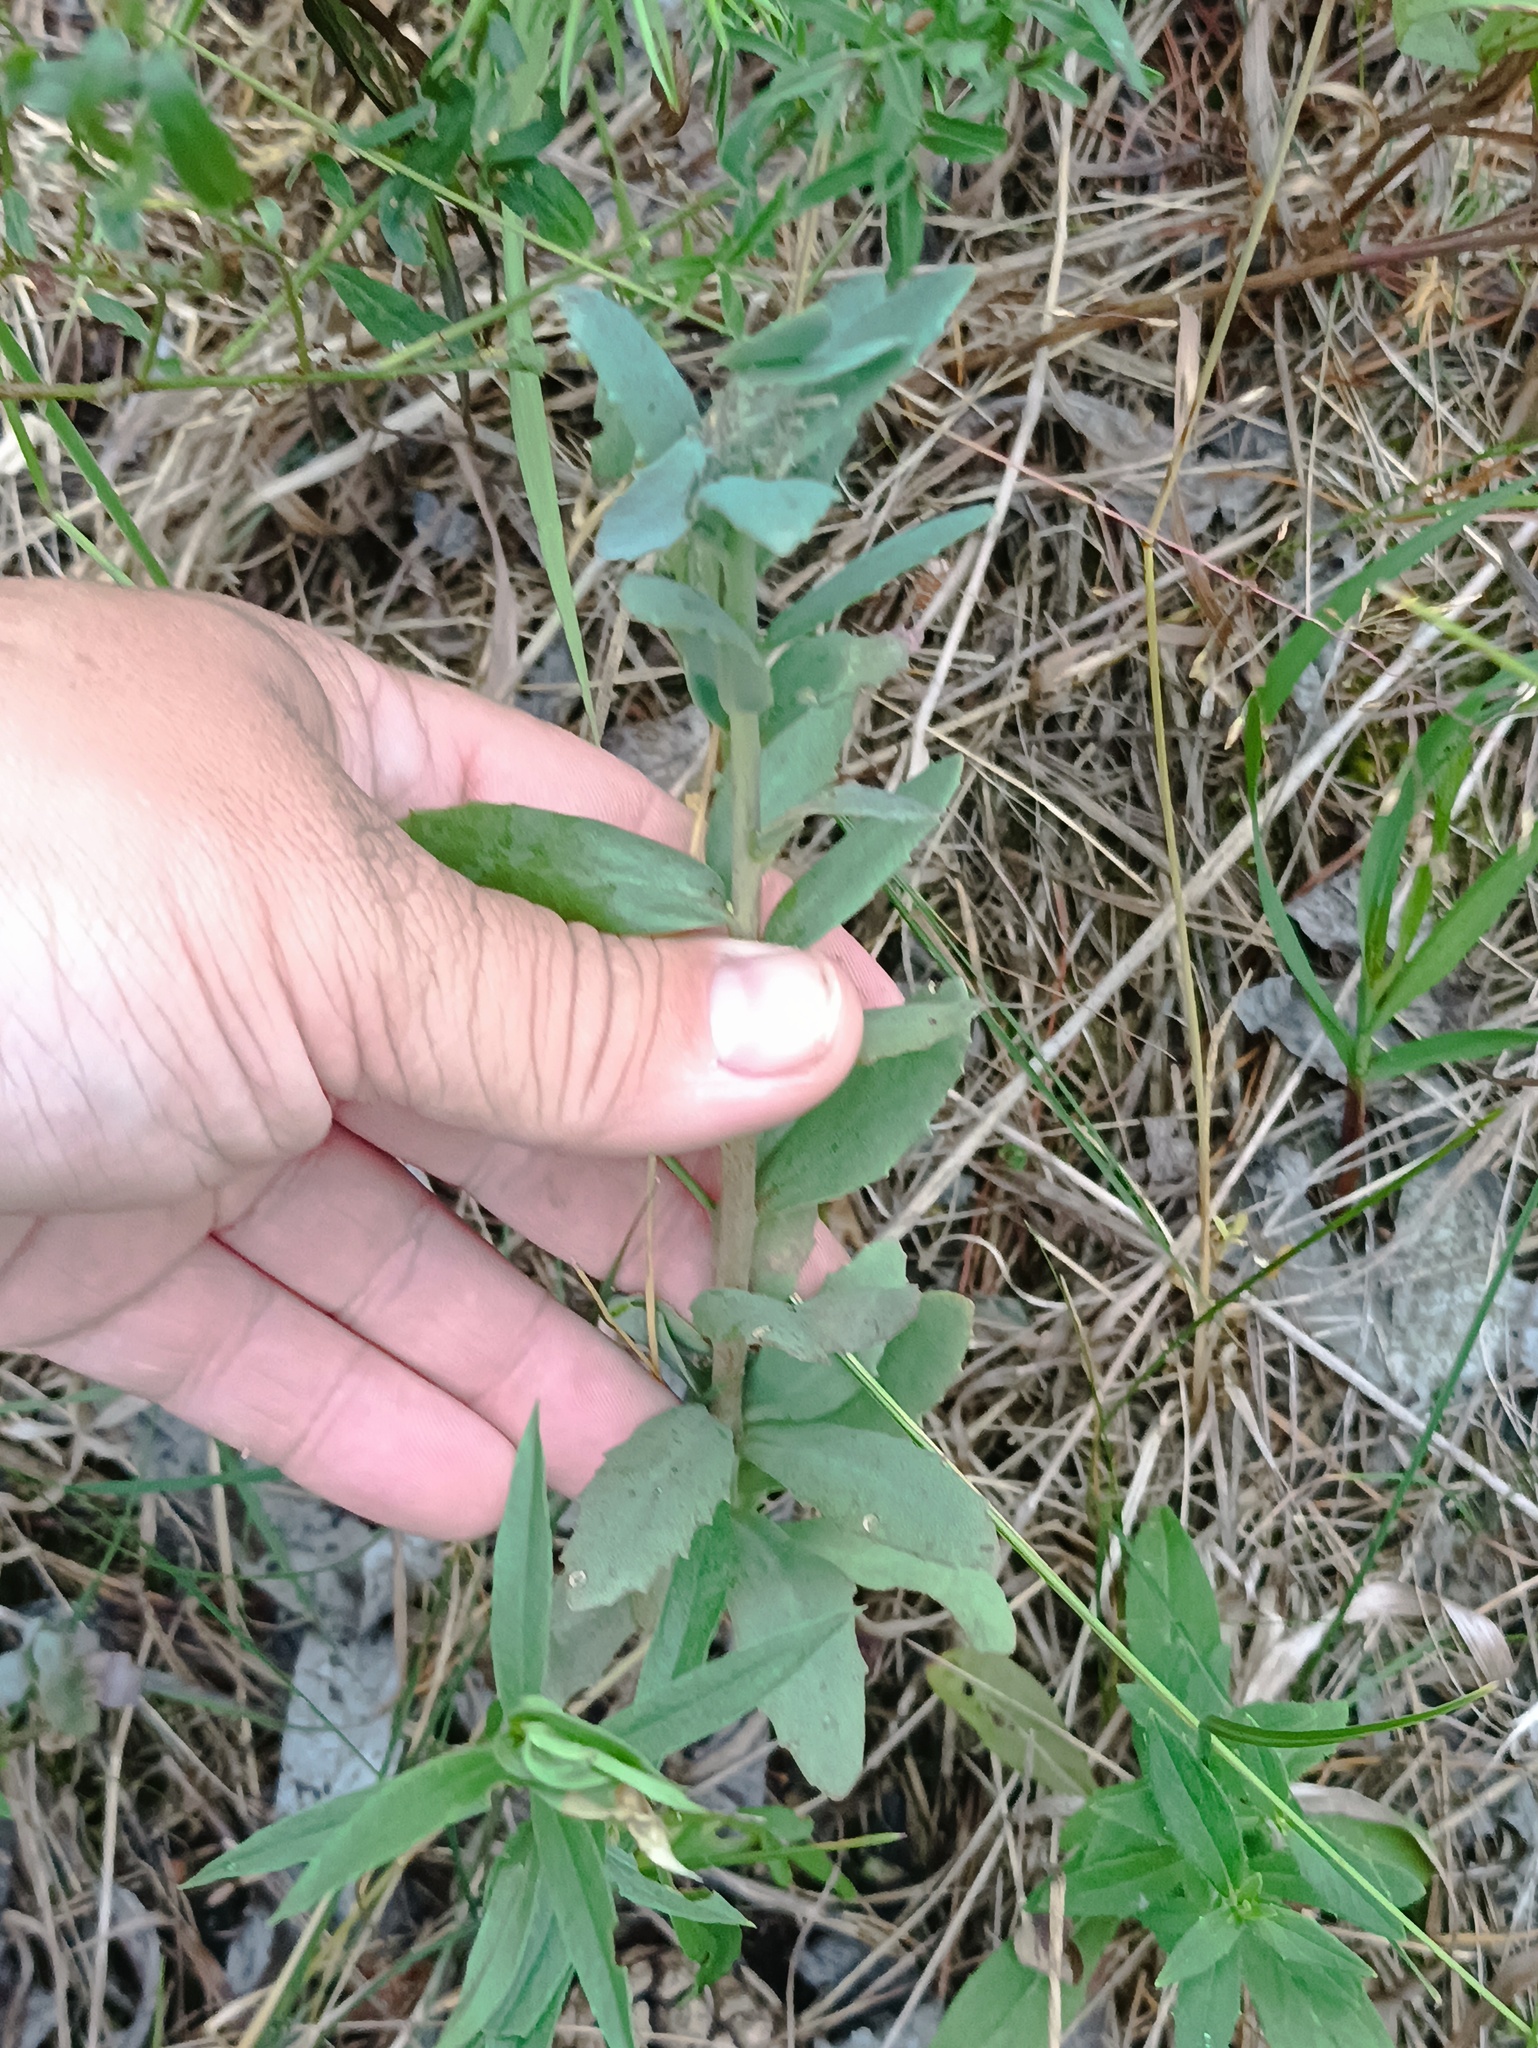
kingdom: Plantae
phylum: Tracheophyta
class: Magnoliopsida
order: Saxifragales
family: Crassulaceae
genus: Hylotelephium
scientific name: Hylotelephium telephium
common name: Live-forever
